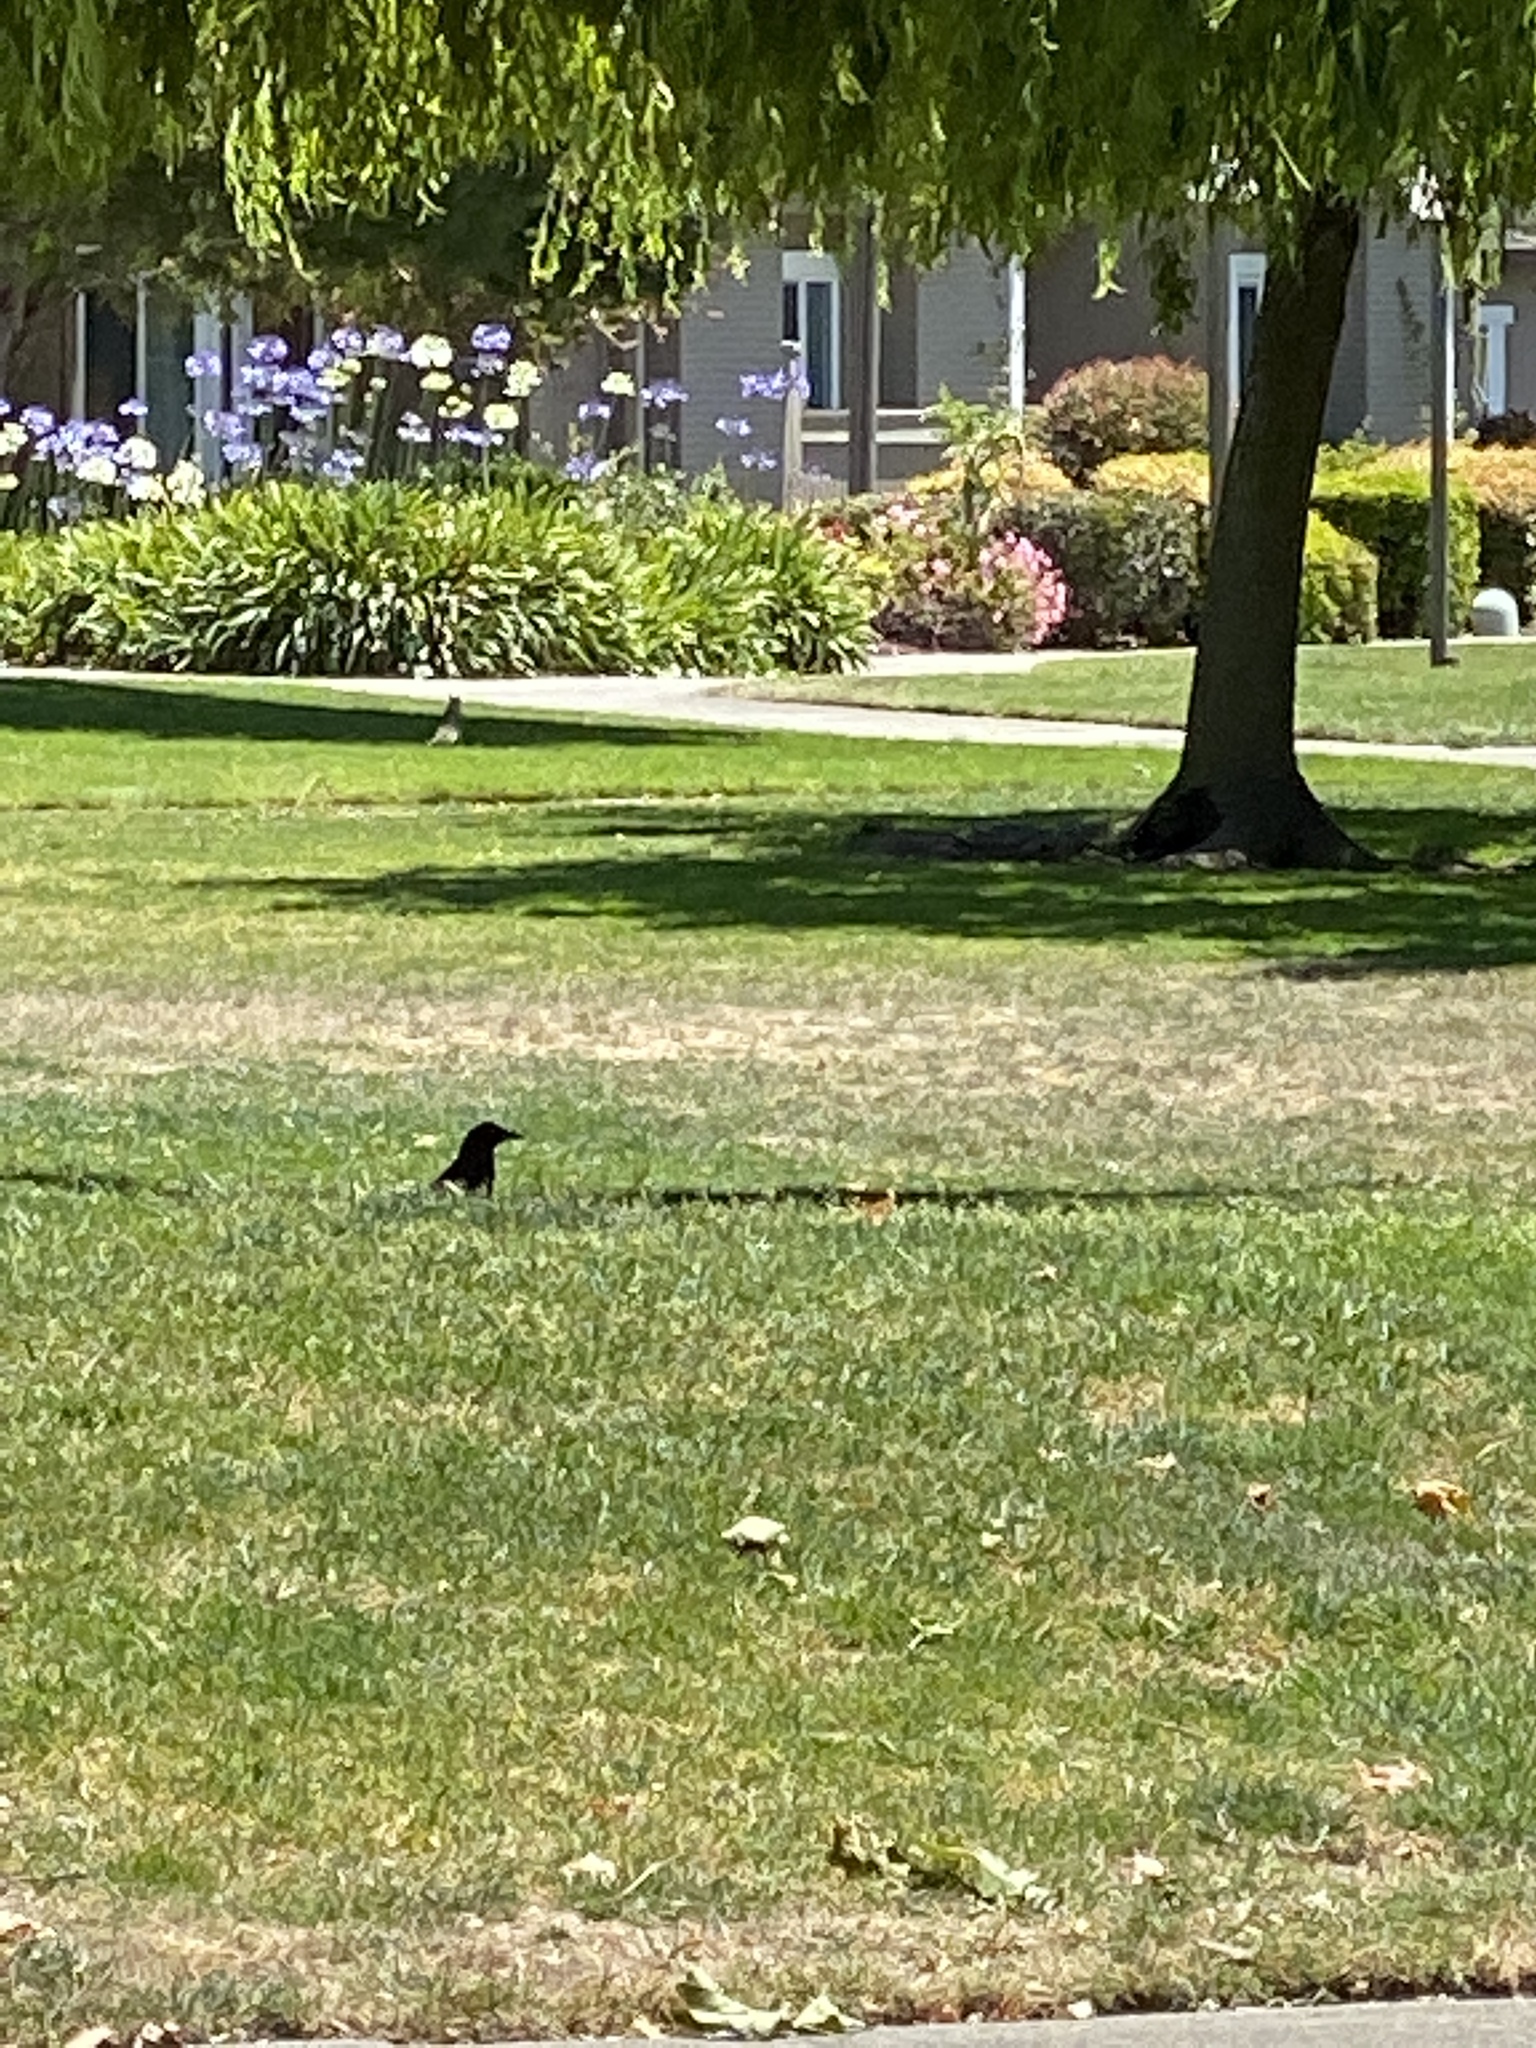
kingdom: Animalia
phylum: Chordata
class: Aves
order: Passeriformes
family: Corvidae
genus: Corvus
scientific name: Corvus brachyrhynchos
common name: American crow
